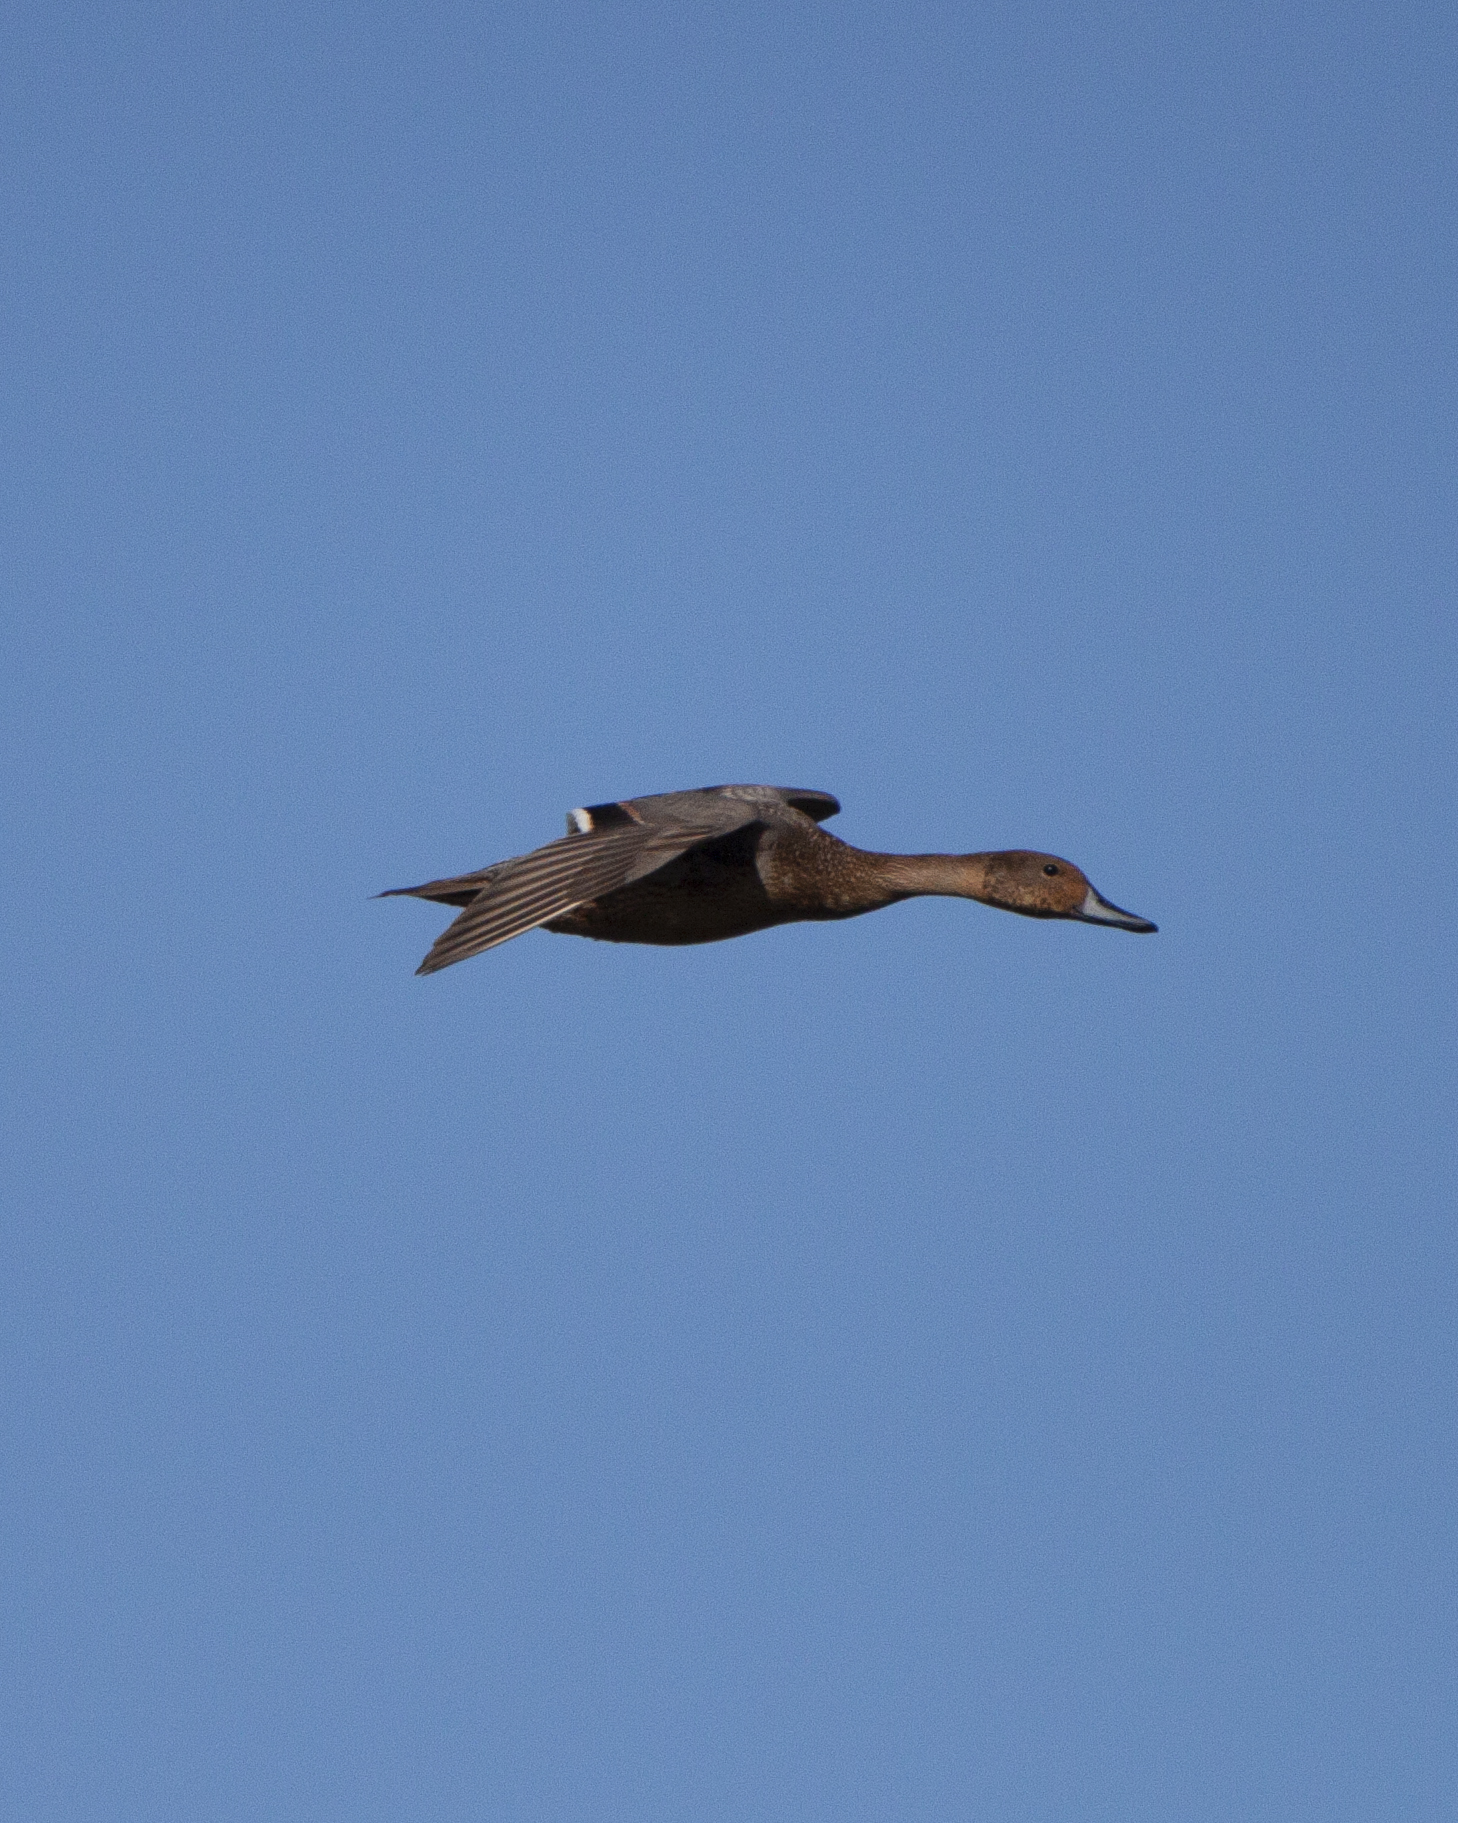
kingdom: Animalia
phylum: Chordata
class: Aves
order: Anseriformes
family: Anatidae
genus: Anas
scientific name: Anas acuta
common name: Northern pintail
